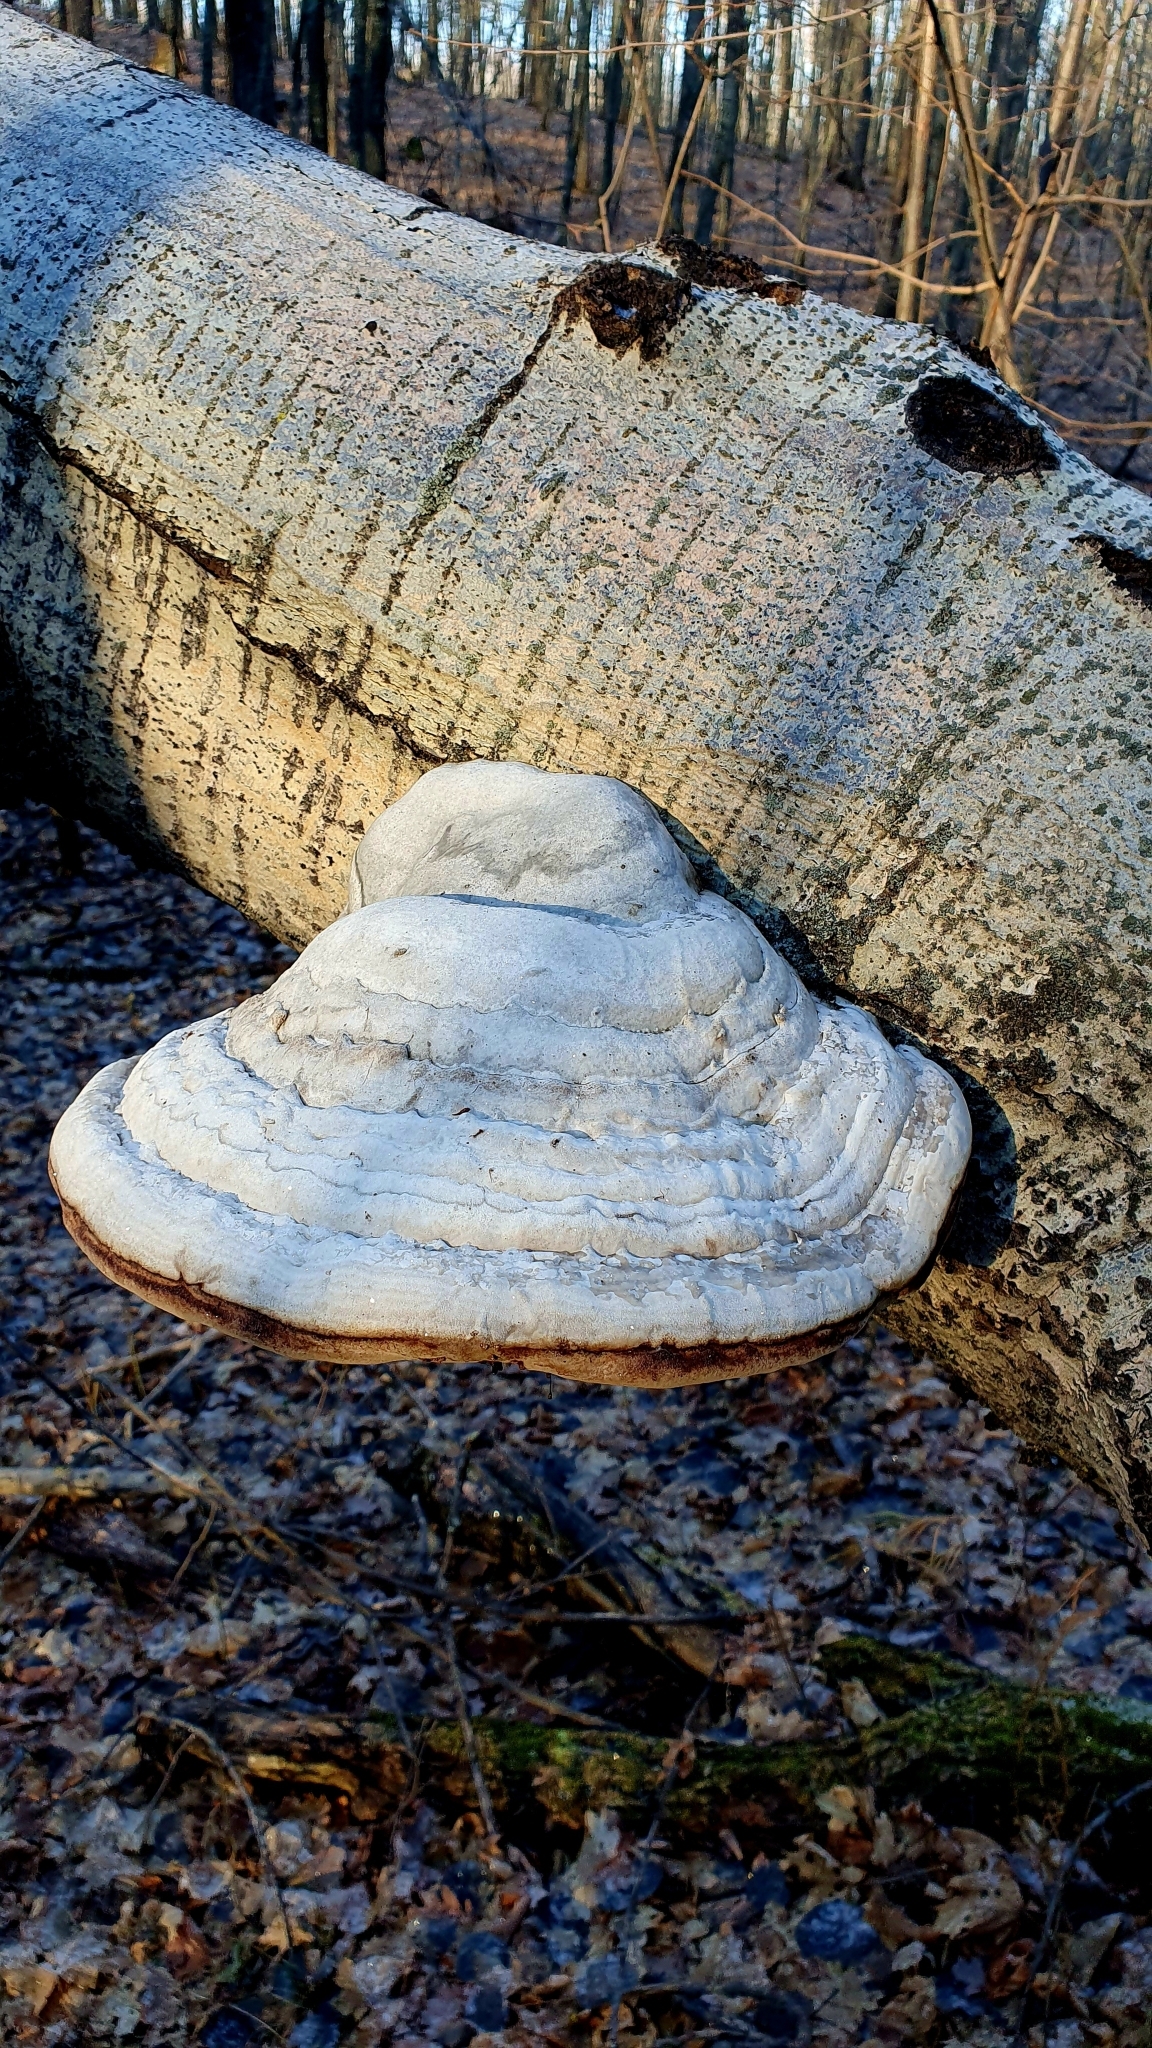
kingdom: Fungi
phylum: Basidiomycota
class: Agaricomycetes
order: Polyporales
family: Polyporaceae
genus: Fomes
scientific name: Fomes fomentarius
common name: Hoof fungus
